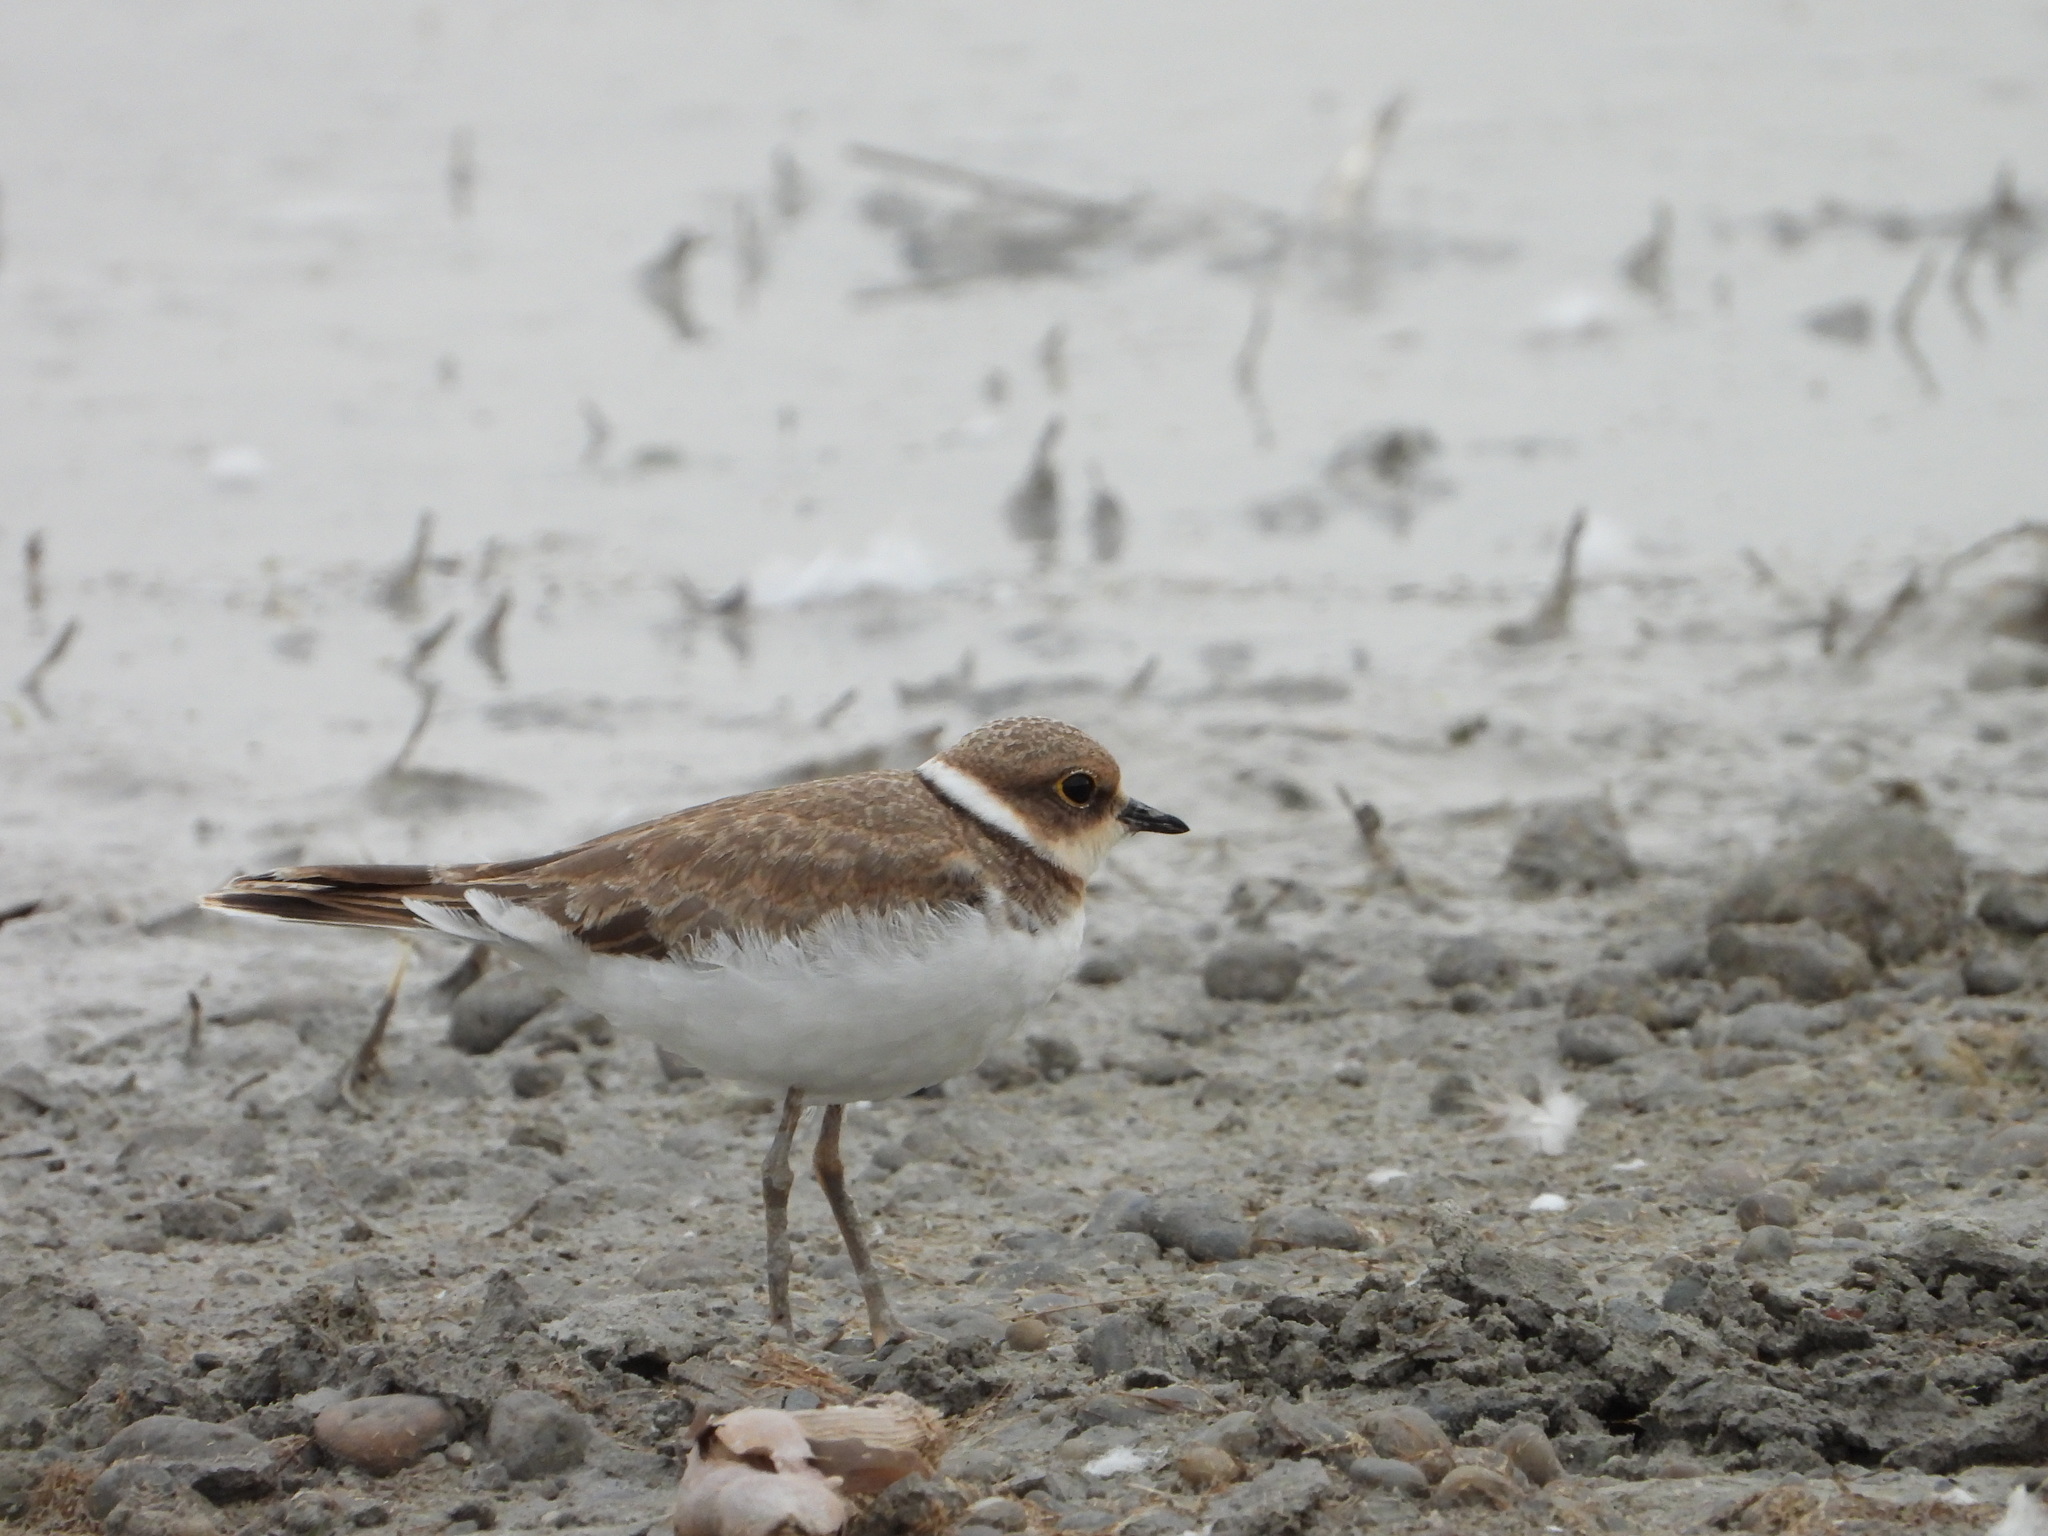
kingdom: Animalia
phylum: Chordata
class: Aves
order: Charadriiformes
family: Charadriidae
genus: Charadrius
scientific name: Charadrius dubius
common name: Little ringed plover
